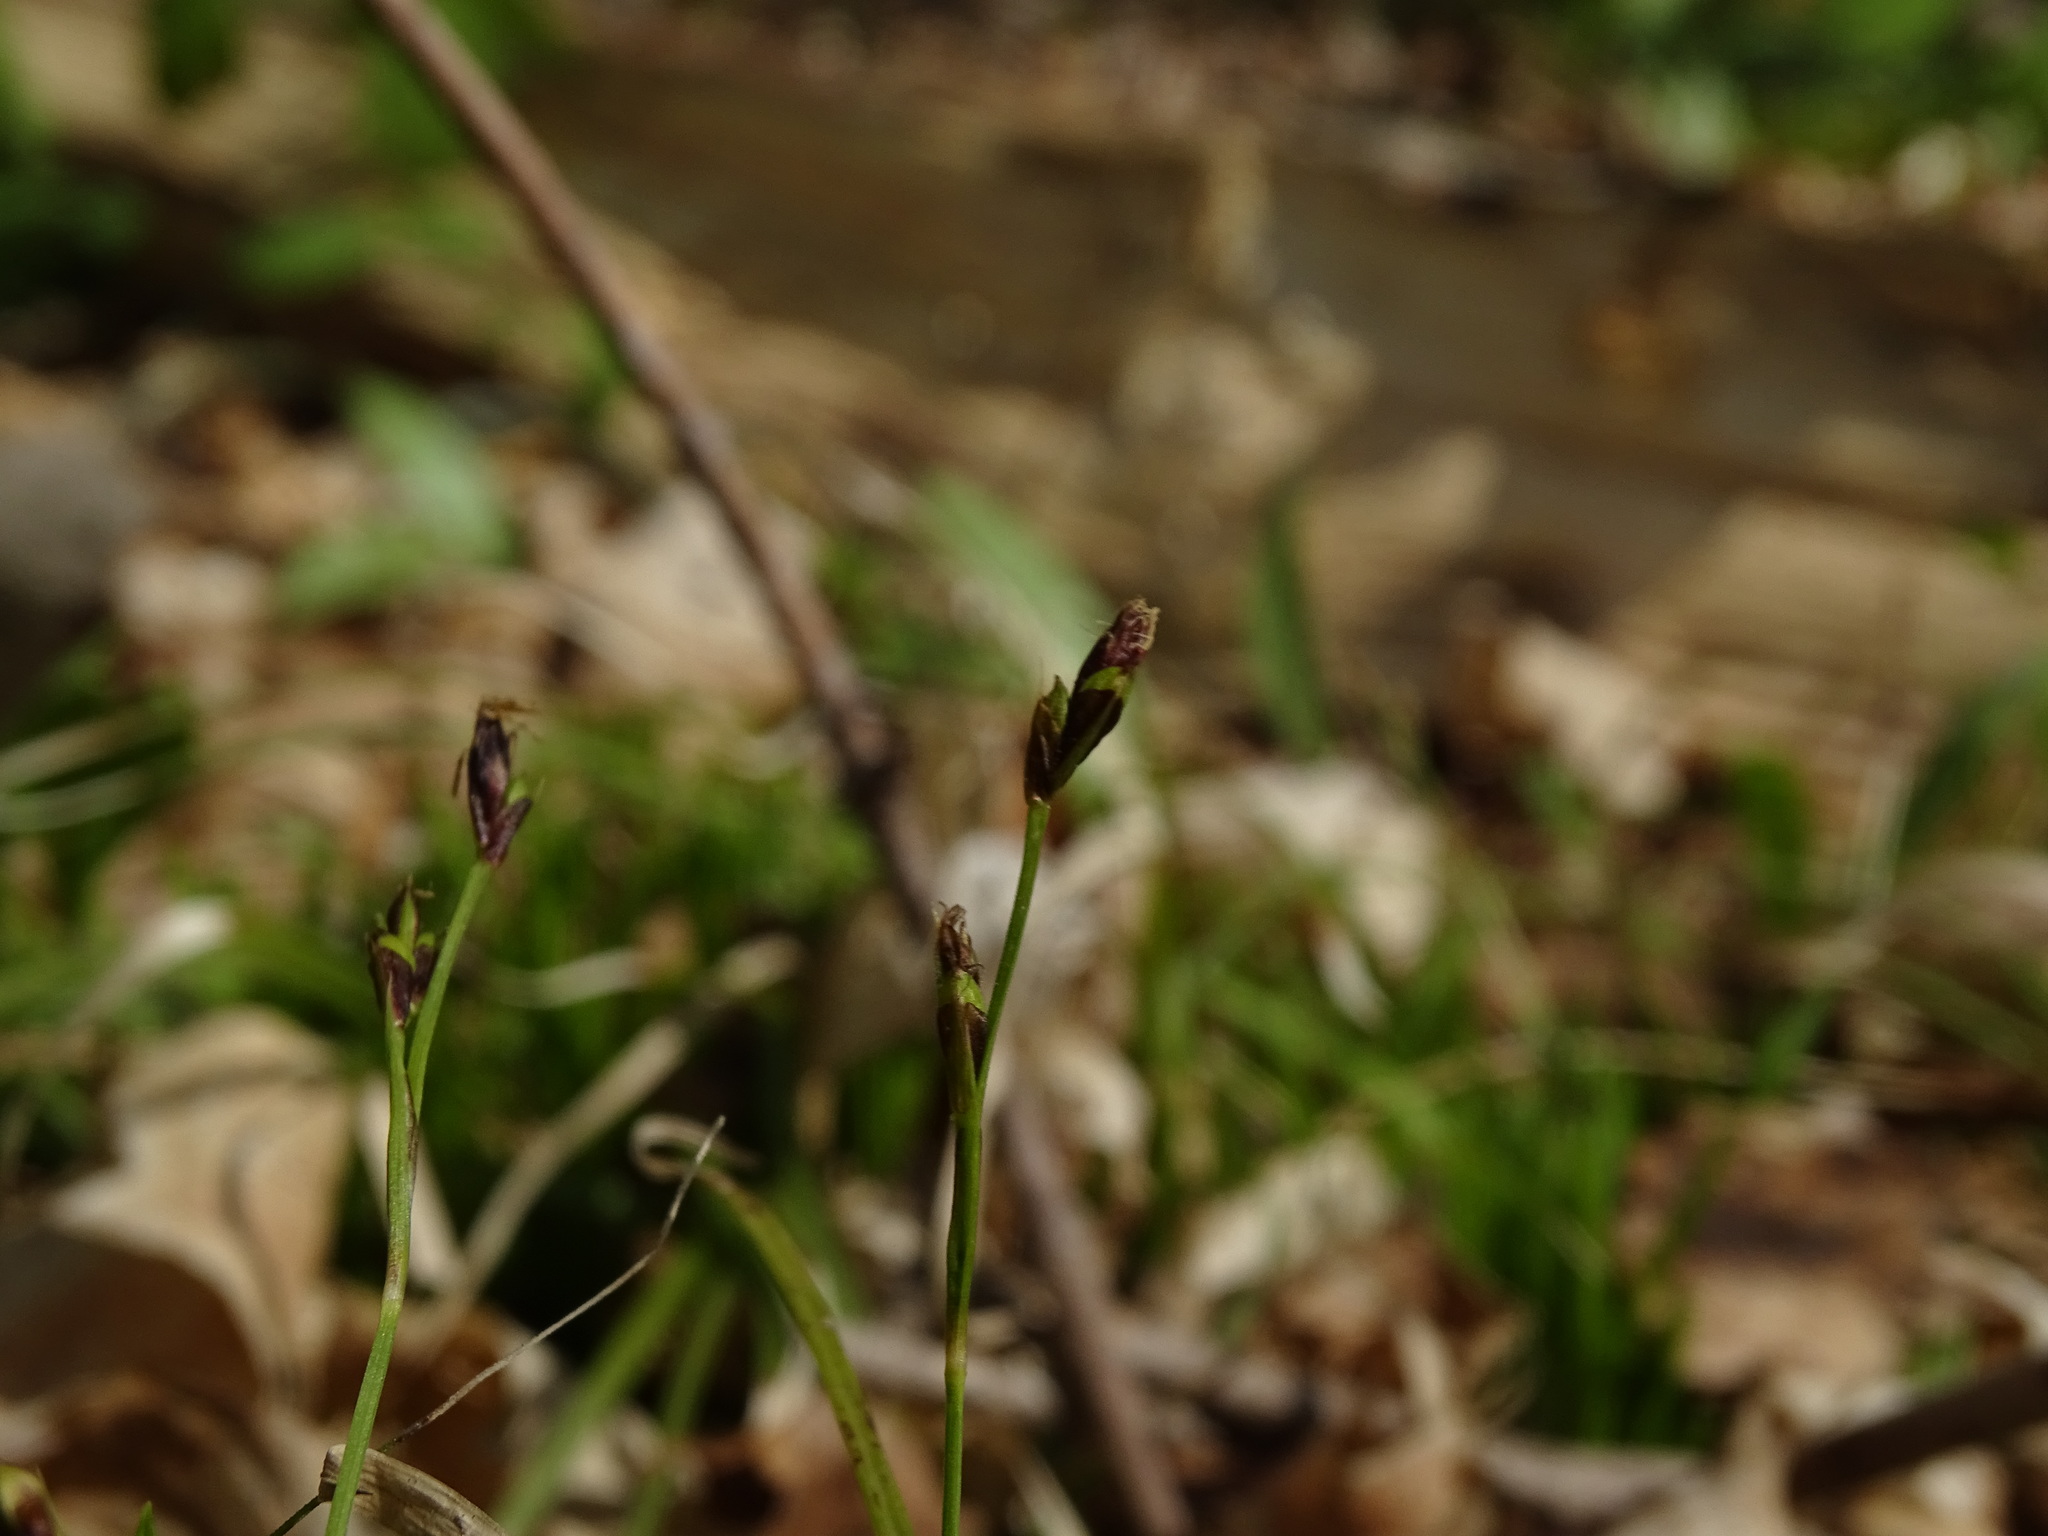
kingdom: Plantae
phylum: Tracheophyta
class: Liliopsida
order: Poales
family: Cyperaceae
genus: Carex
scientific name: Carex pedunculata
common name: Pedunculate sedge
